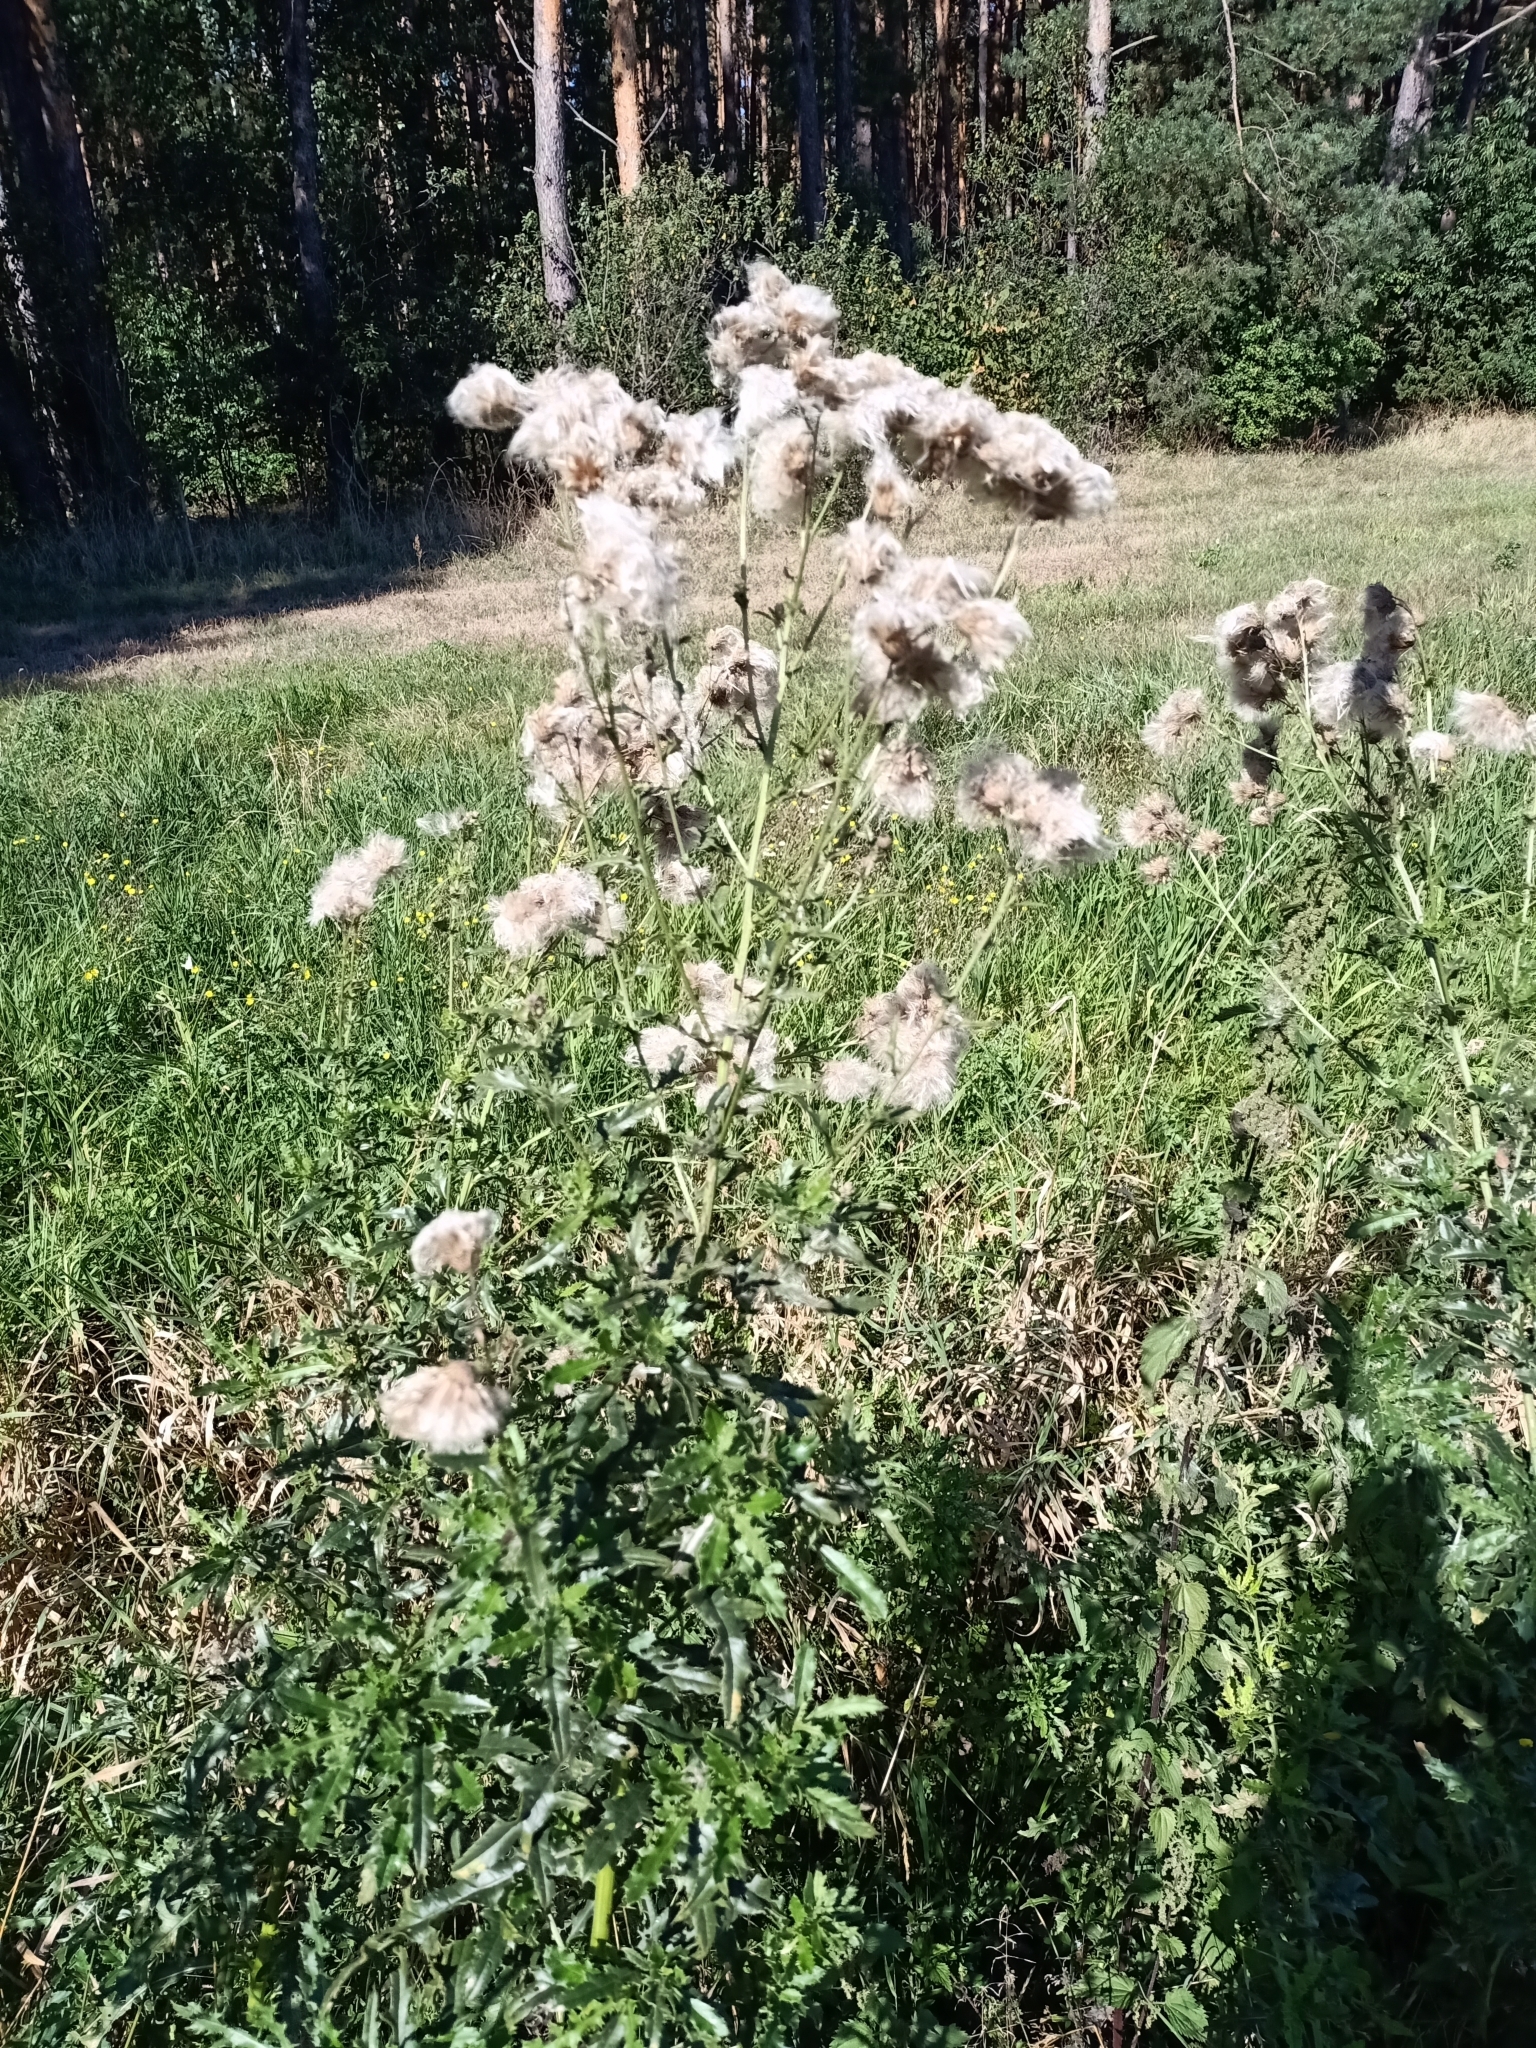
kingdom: Plantae
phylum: Tracheophyta
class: Magnoliopsida
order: Asterales
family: Asteraceae
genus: Cirsium
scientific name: Cirsium arvense
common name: Creeping thistle
